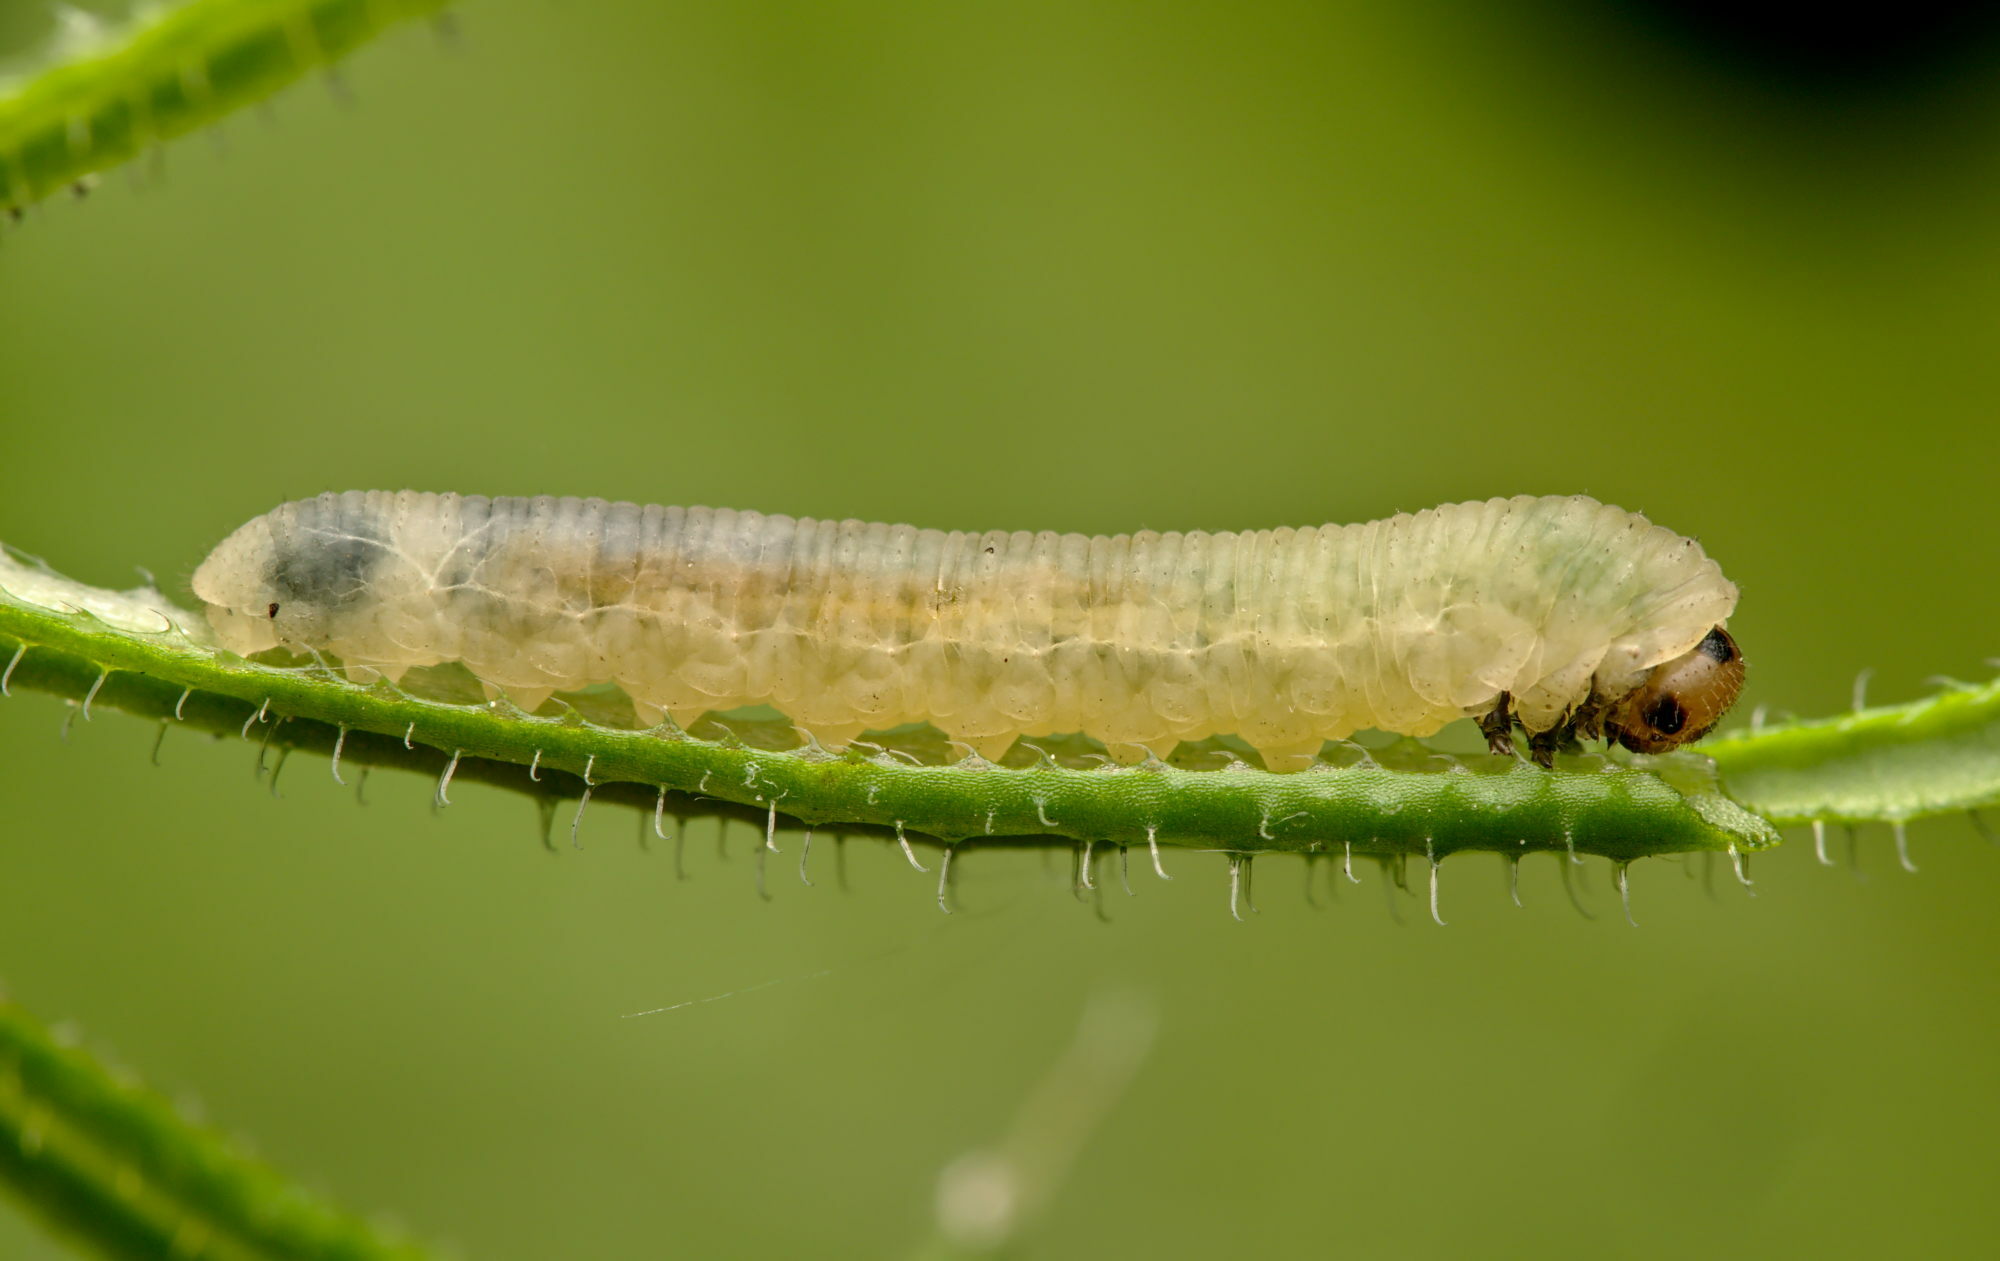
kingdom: Animalia
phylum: Arthropoda
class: Insecta
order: Hymenoptera
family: Tenthredinidae
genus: Halidamia
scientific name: Halidamia affinis
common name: Wasp
